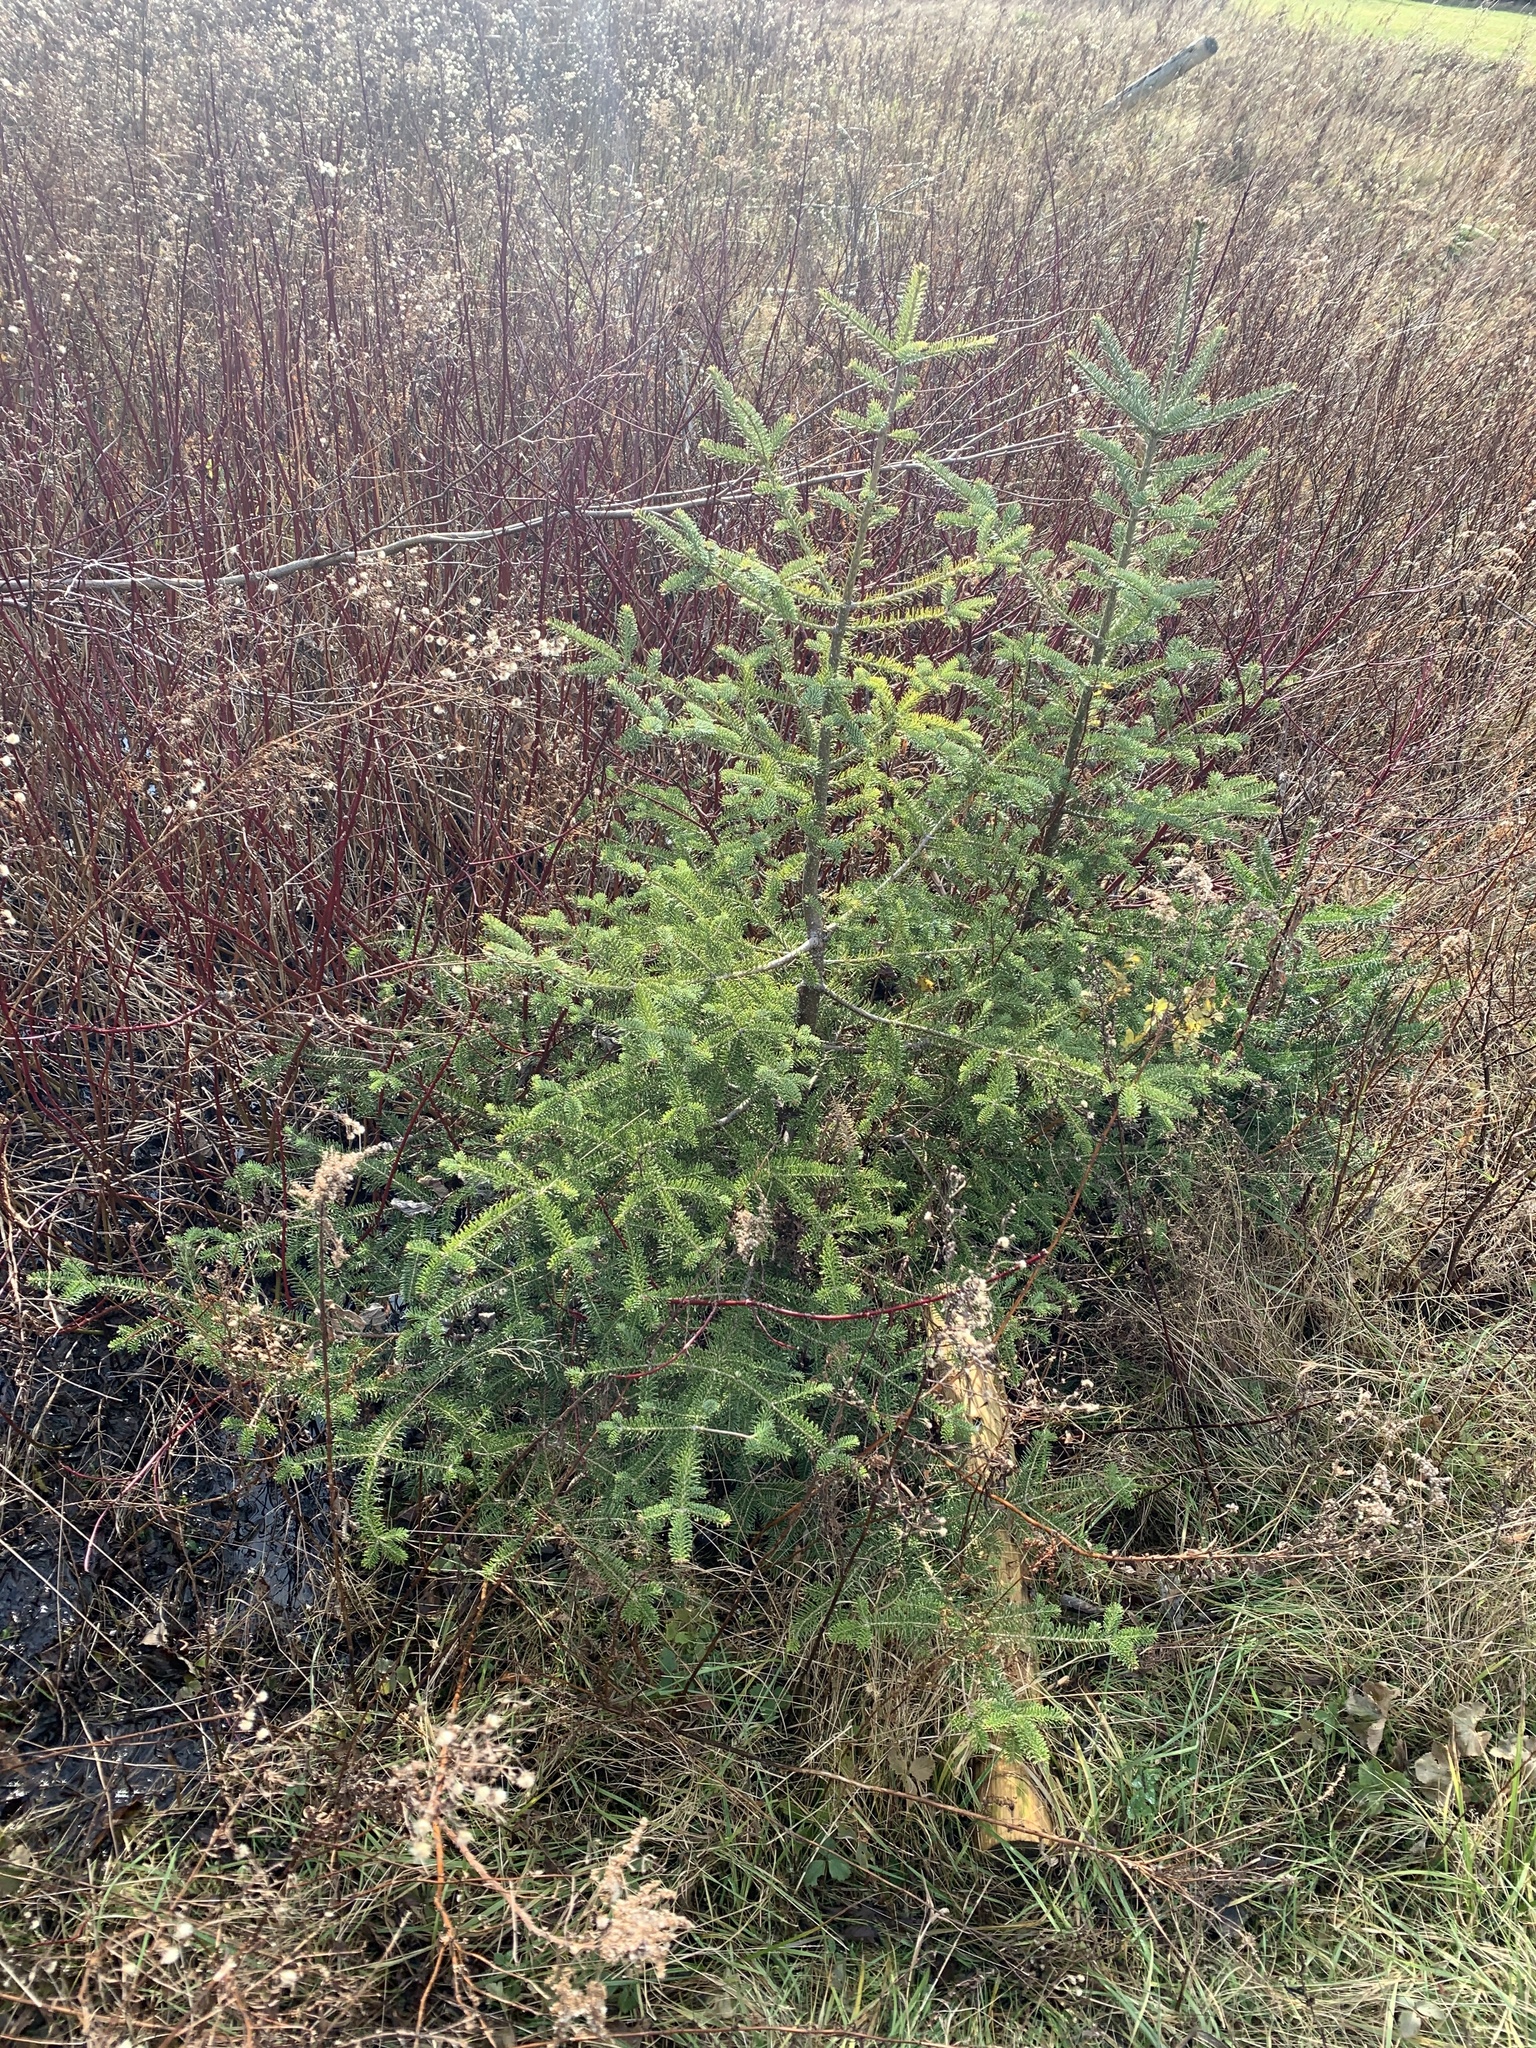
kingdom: Plantae
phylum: Tracheophyta
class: Pinopsida
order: Pinales
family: Pinaceae
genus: Abies
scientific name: Abies balsamea
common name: Balsam fir
